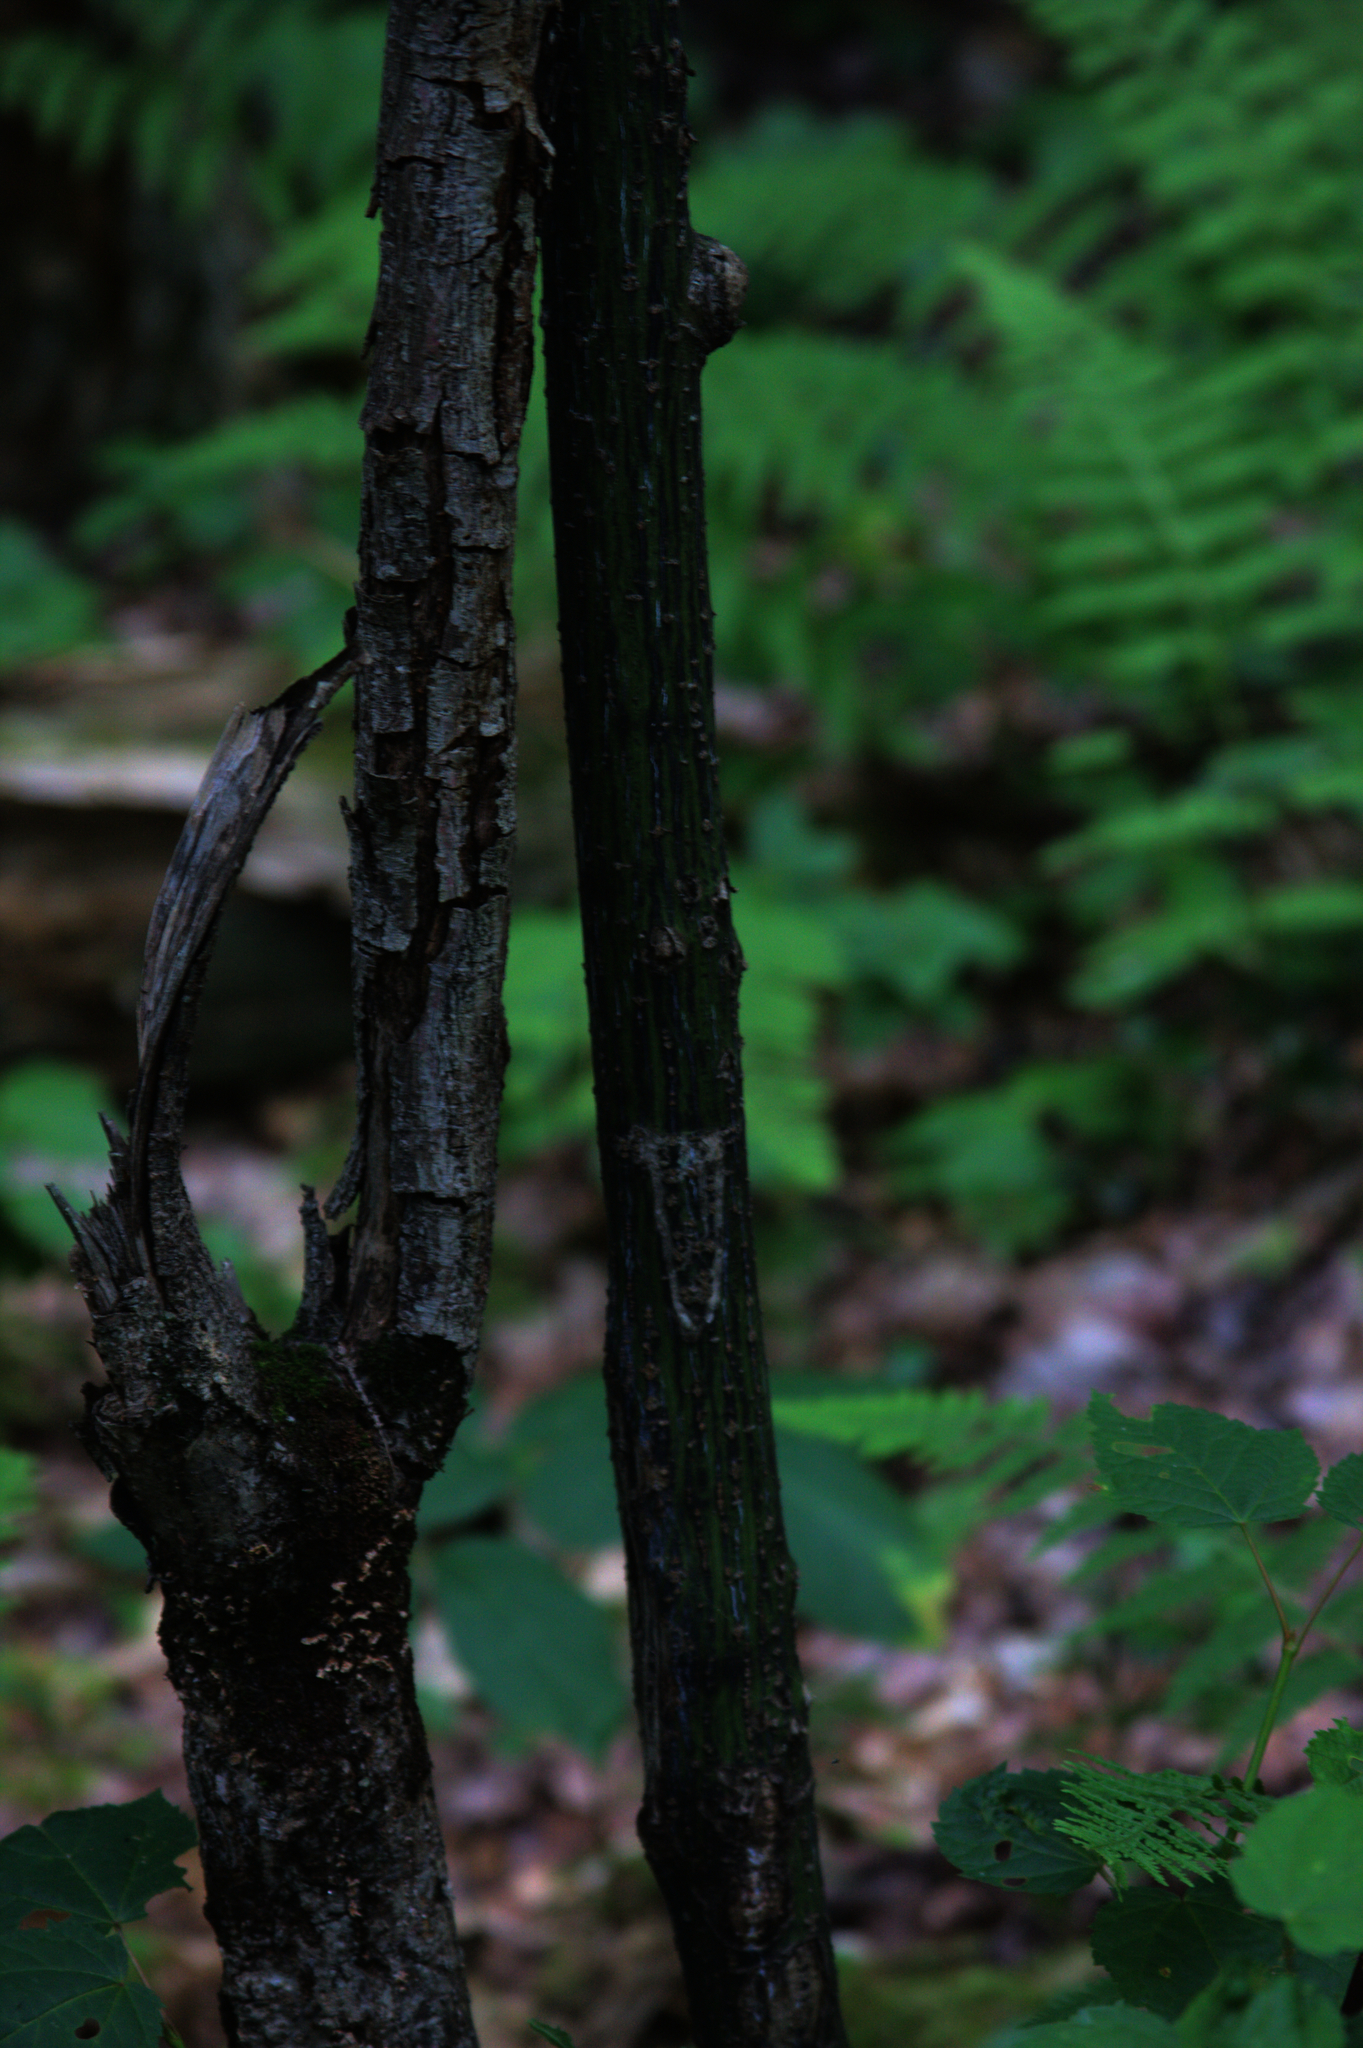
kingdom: Plantae
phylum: Tracheophyta
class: Magnoliopsida
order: Sapindales
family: Sapindaceae
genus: Acer
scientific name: Acer pensylvanicum
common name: Moosewood
